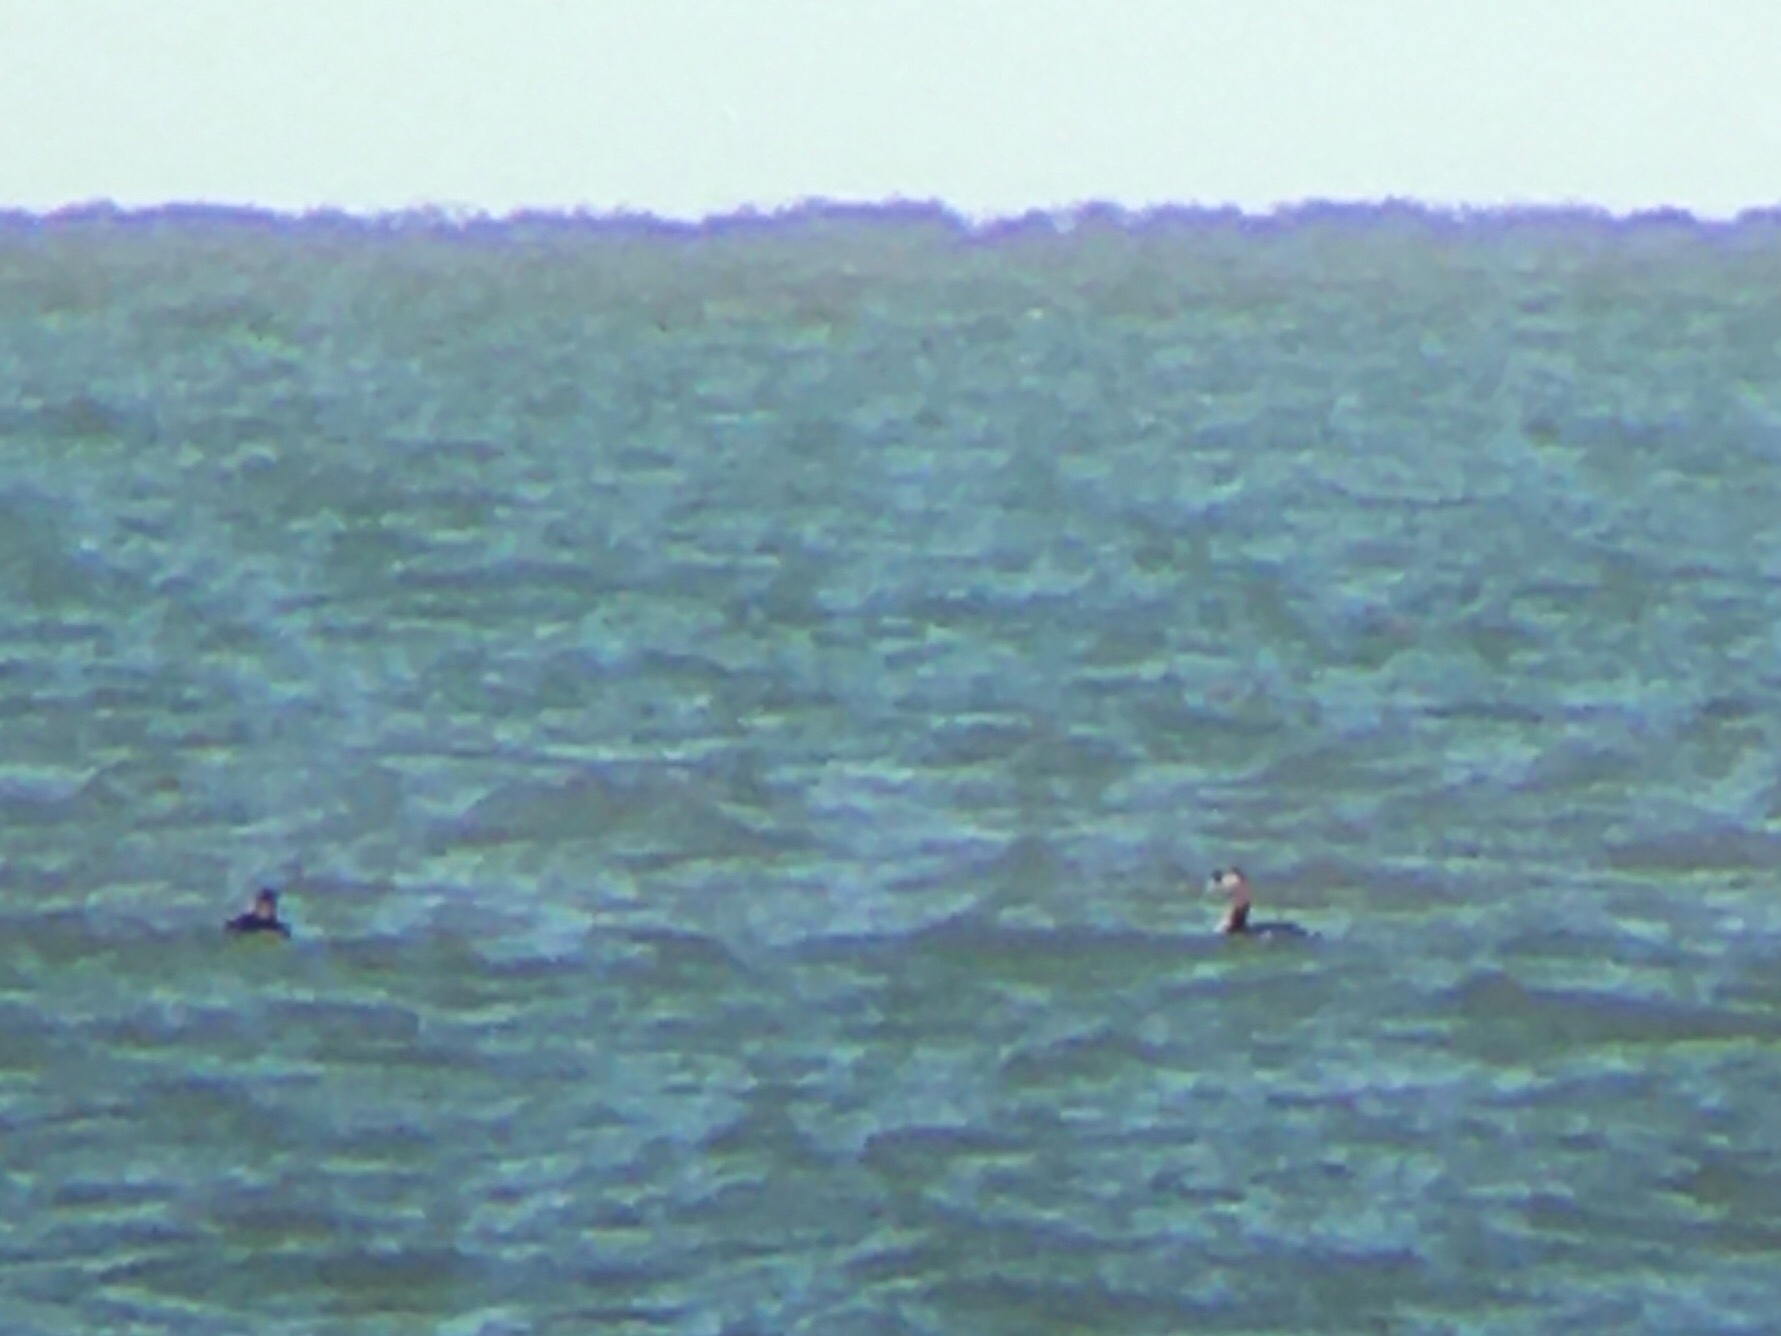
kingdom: Animalia
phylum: Chordata
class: Aves
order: Podicipediformes
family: Podicipedidae
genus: Podiceps
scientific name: Podiceps major
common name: Great grebe
